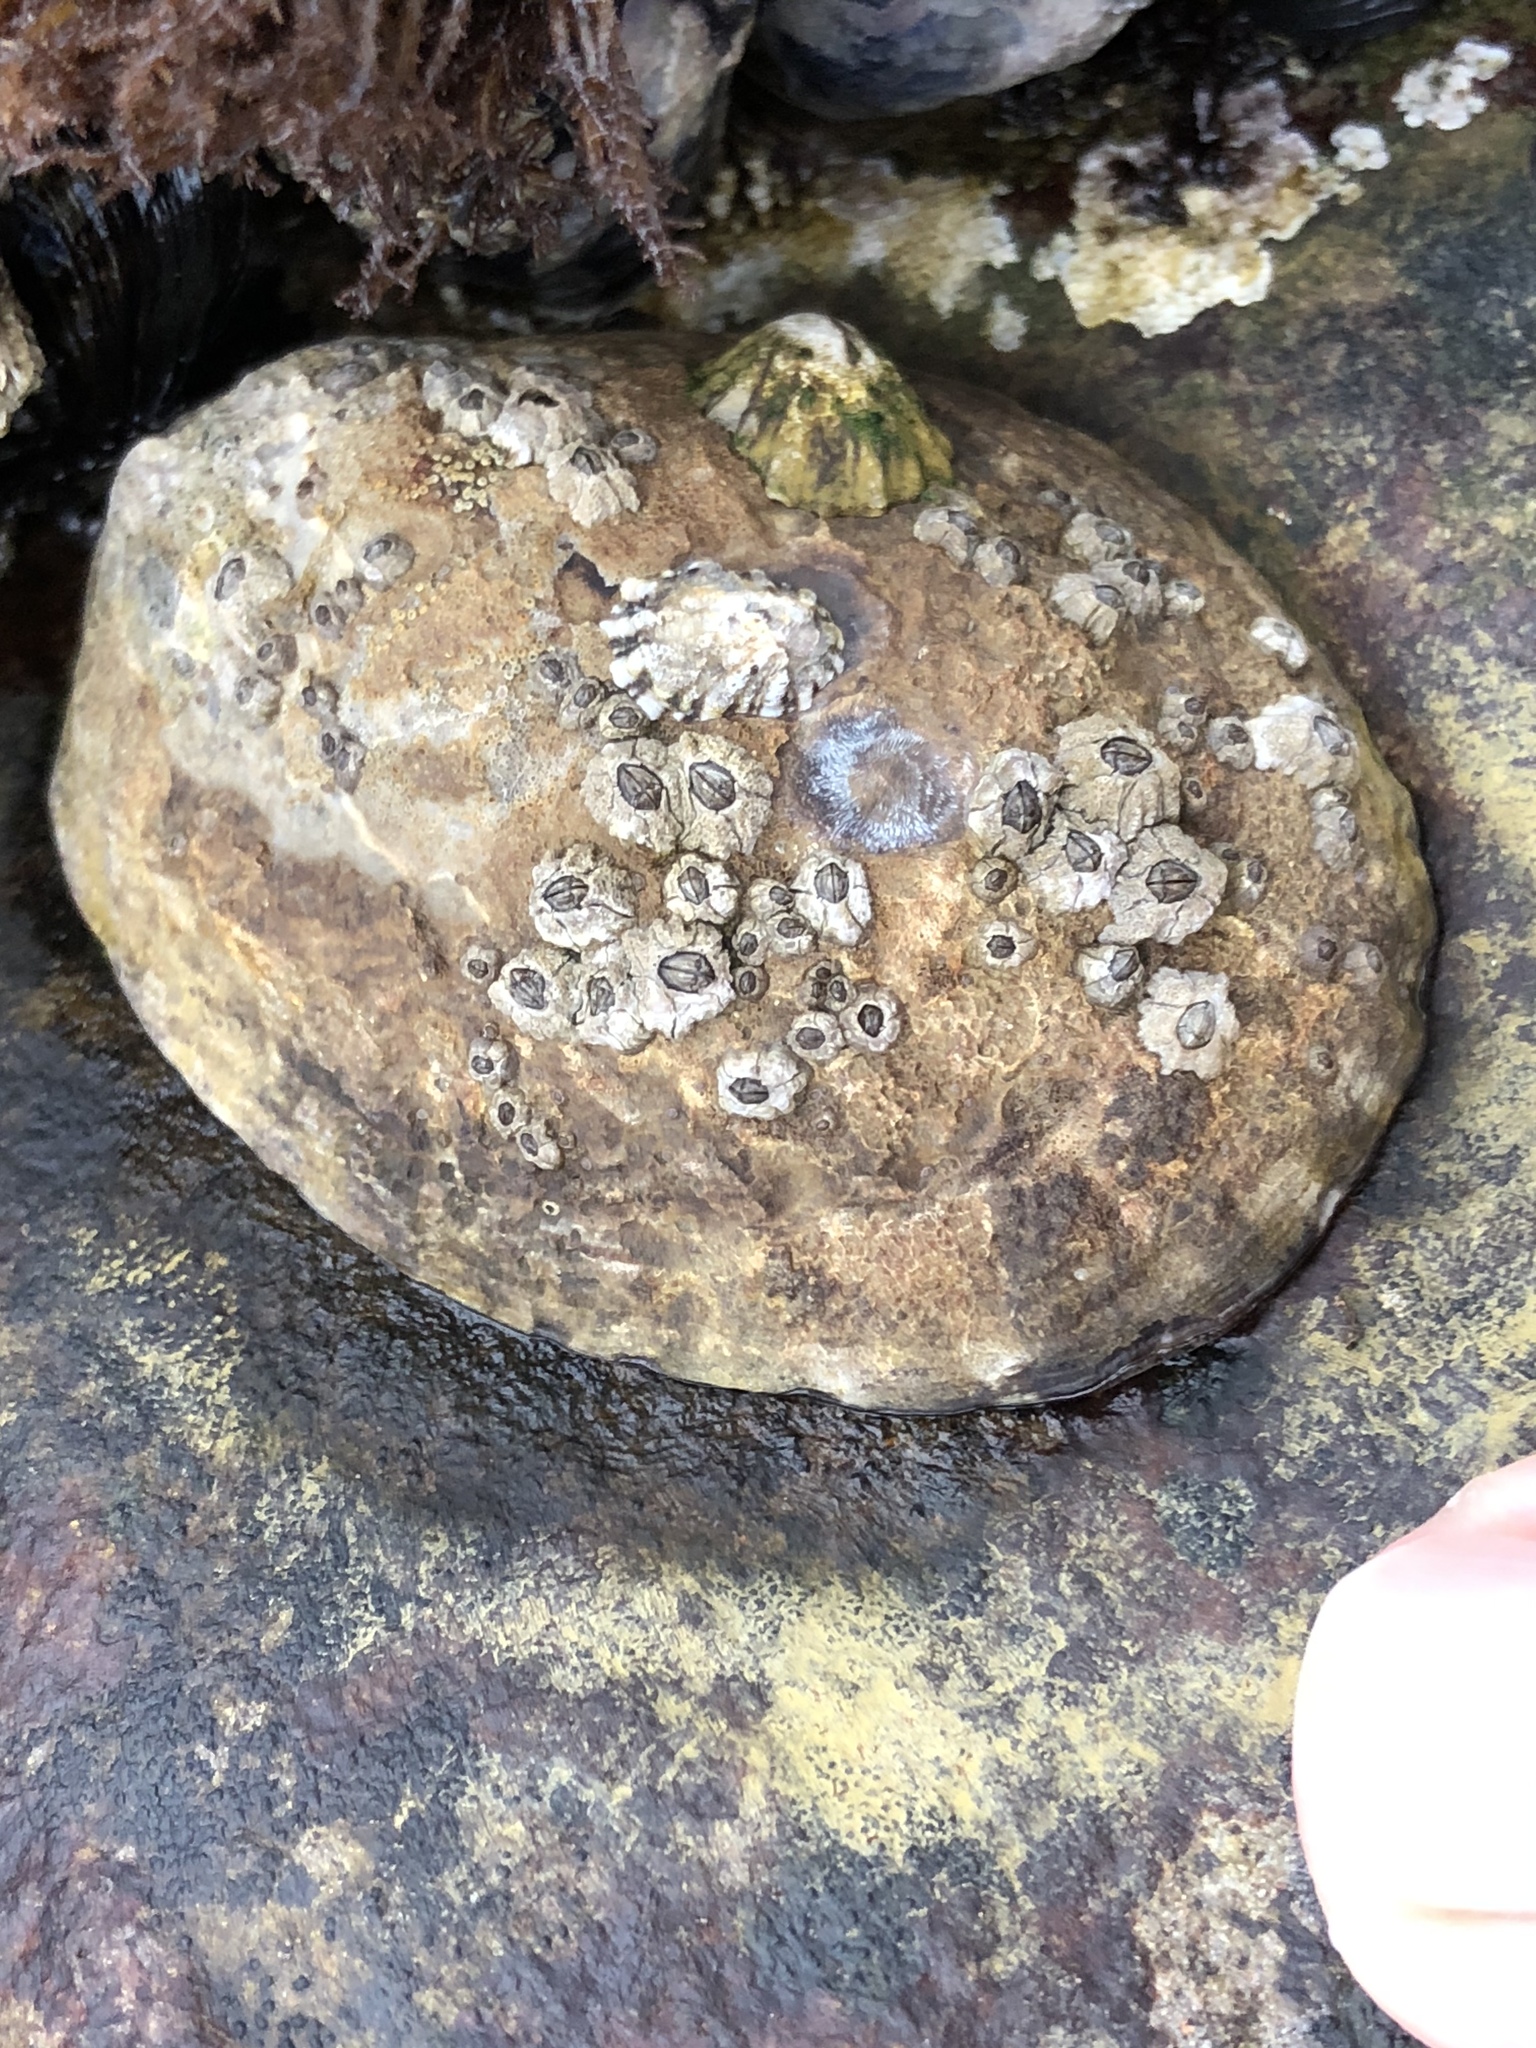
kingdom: Animalia
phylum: Mollusca
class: Gastropoda
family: Lottiidae
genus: Lottia
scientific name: Lottia gigantea
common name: Owl limpet
